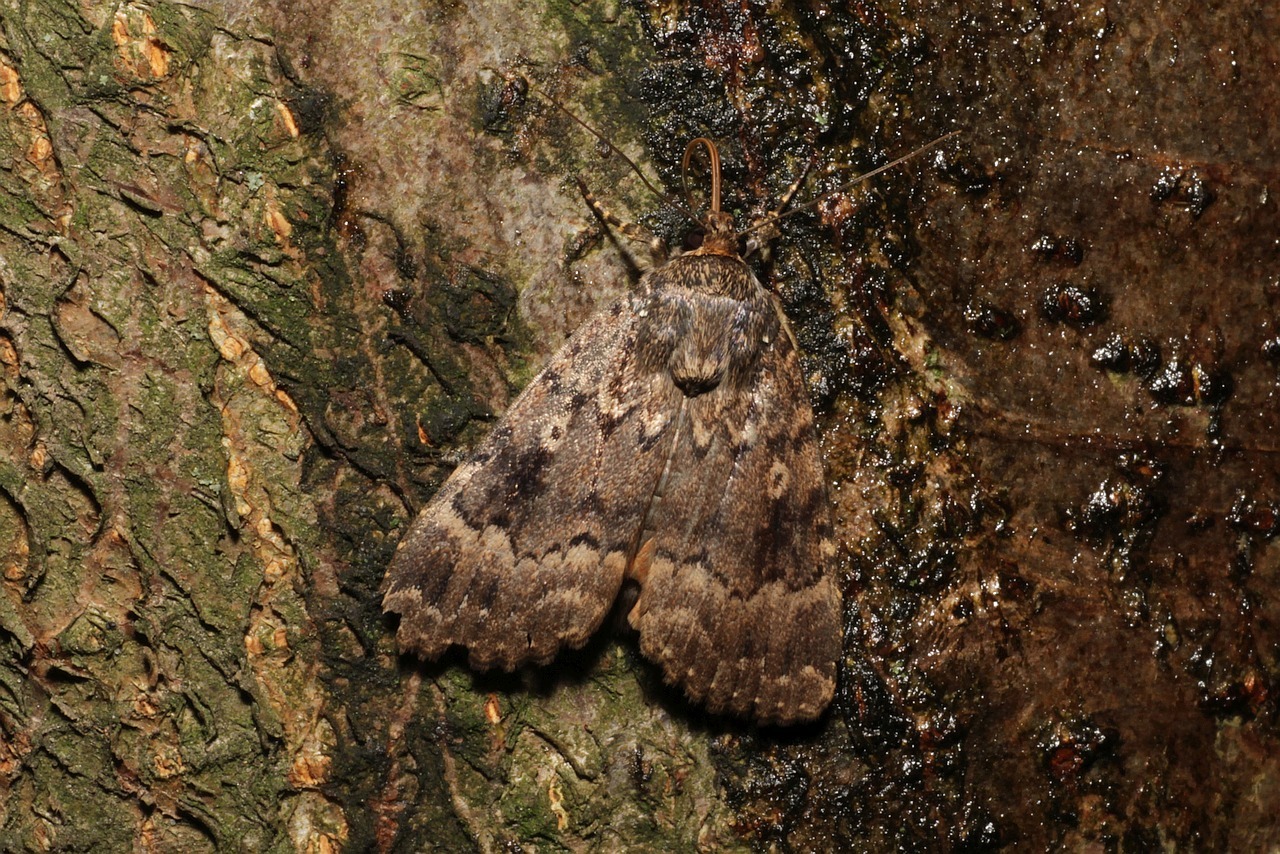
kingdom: Animalia
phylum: Arthropoda
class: Insecta
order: Lepidoptera
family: Noctuidae
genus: Amphipyra
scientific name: Amphipyra berbera
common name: Svensson's copper underwing
